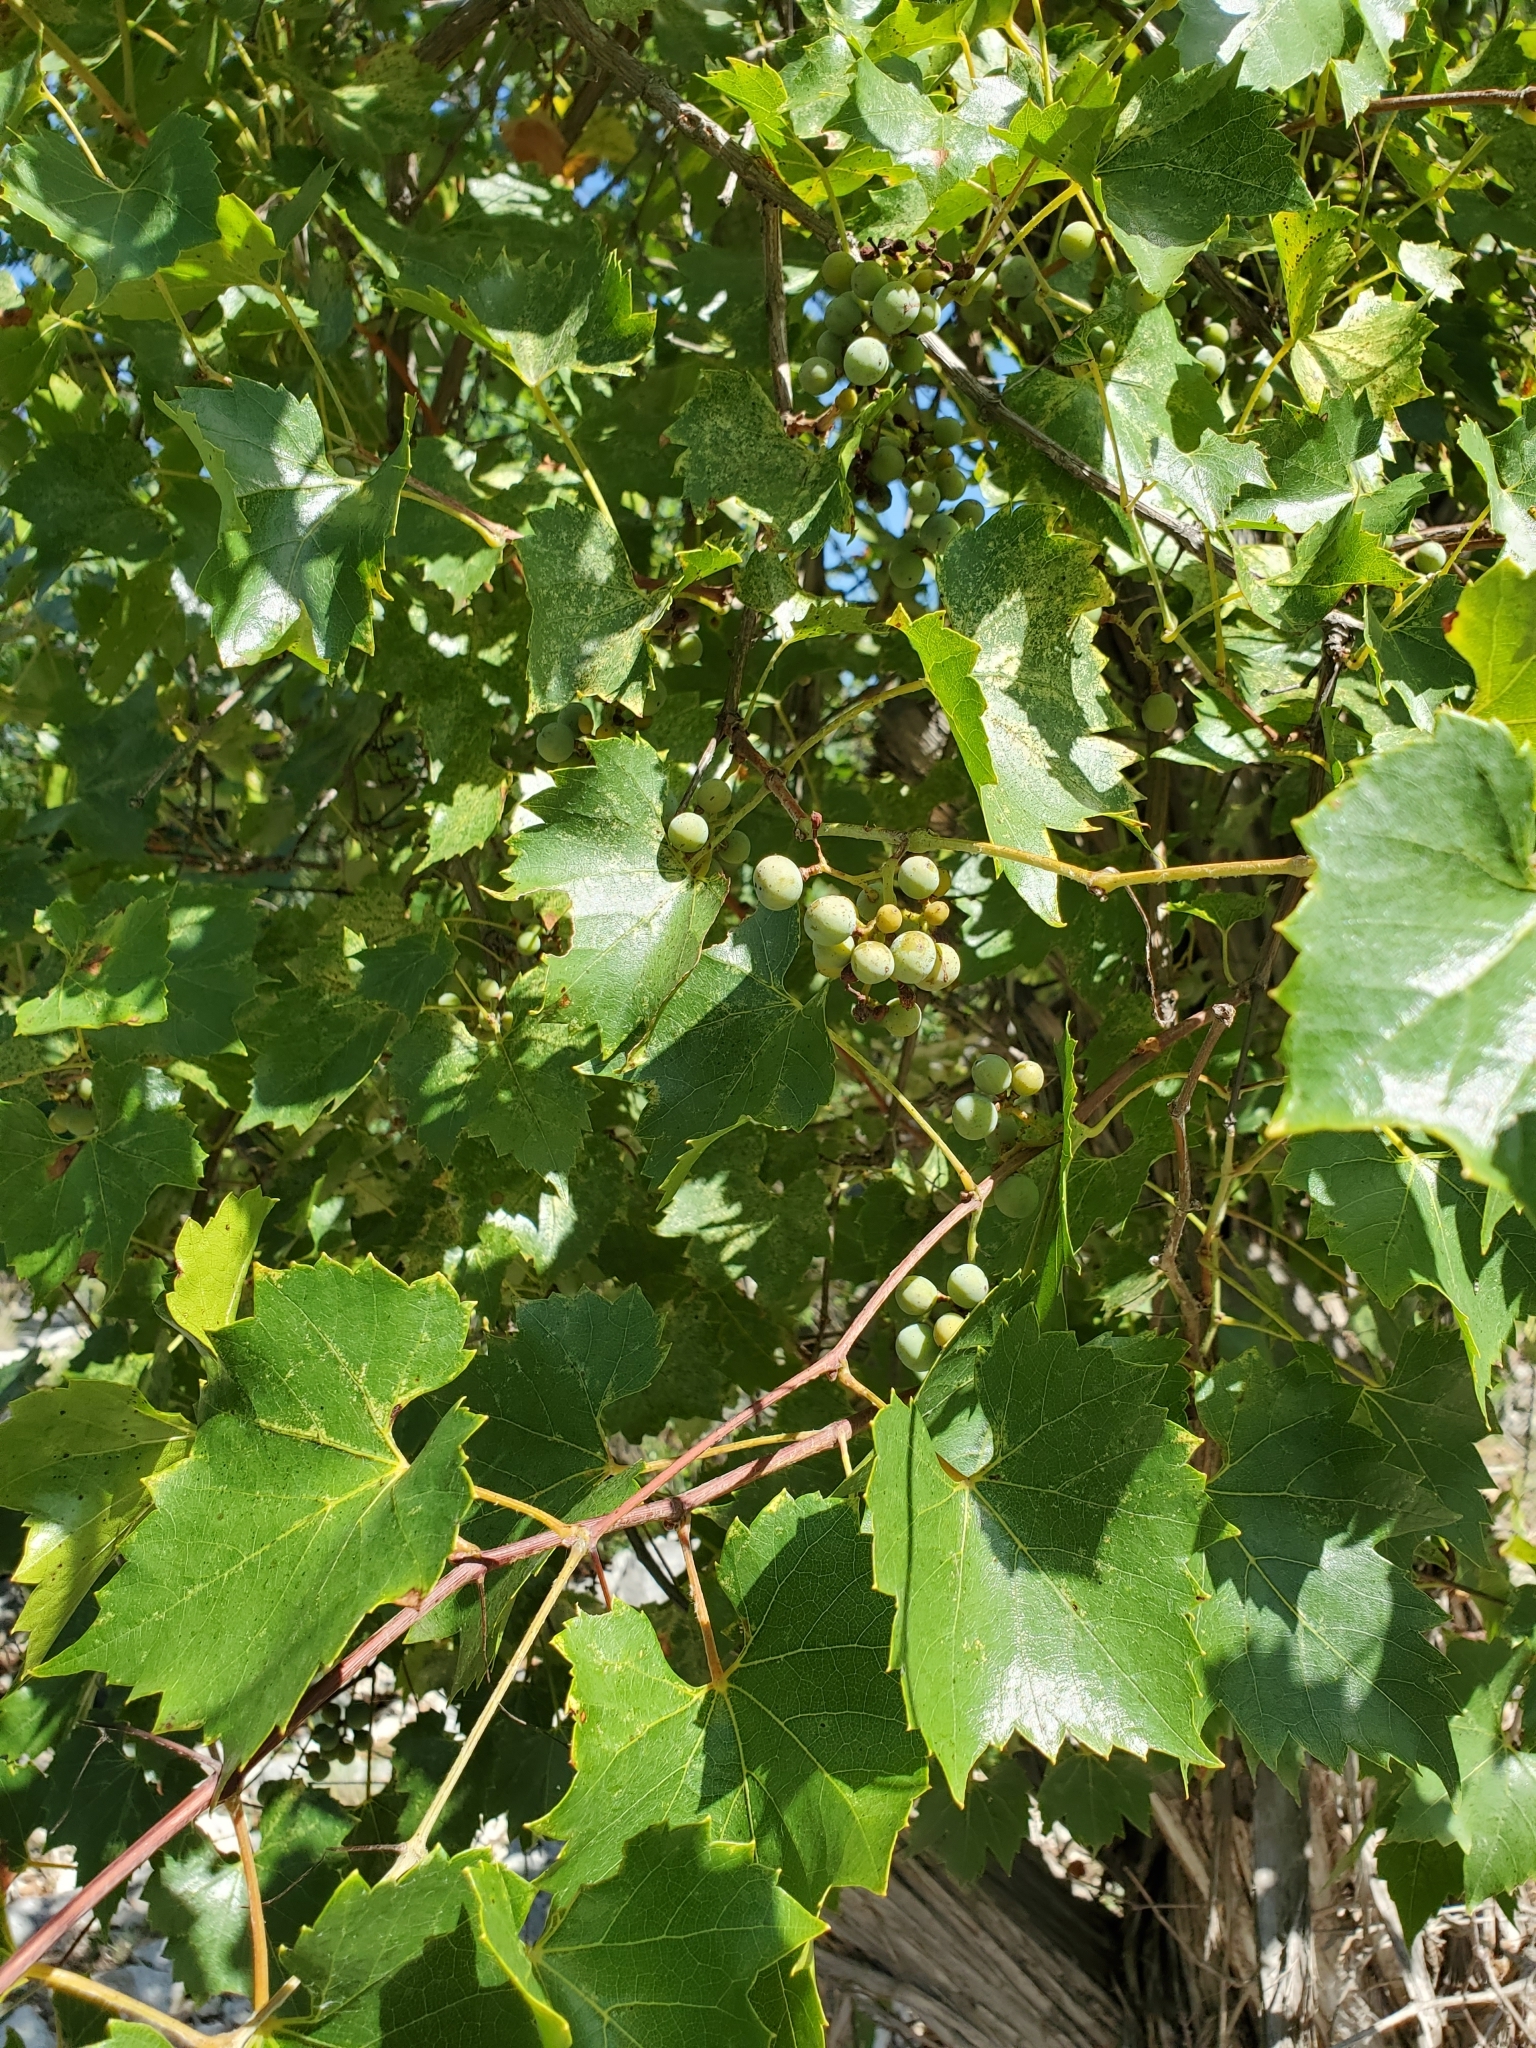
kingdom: Plantae
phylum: Tracheophyta
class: Magnoliopsida
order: Vitales
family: Vitaceae
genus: Vitis
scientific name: Vitis monticola
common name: Mountain grape
